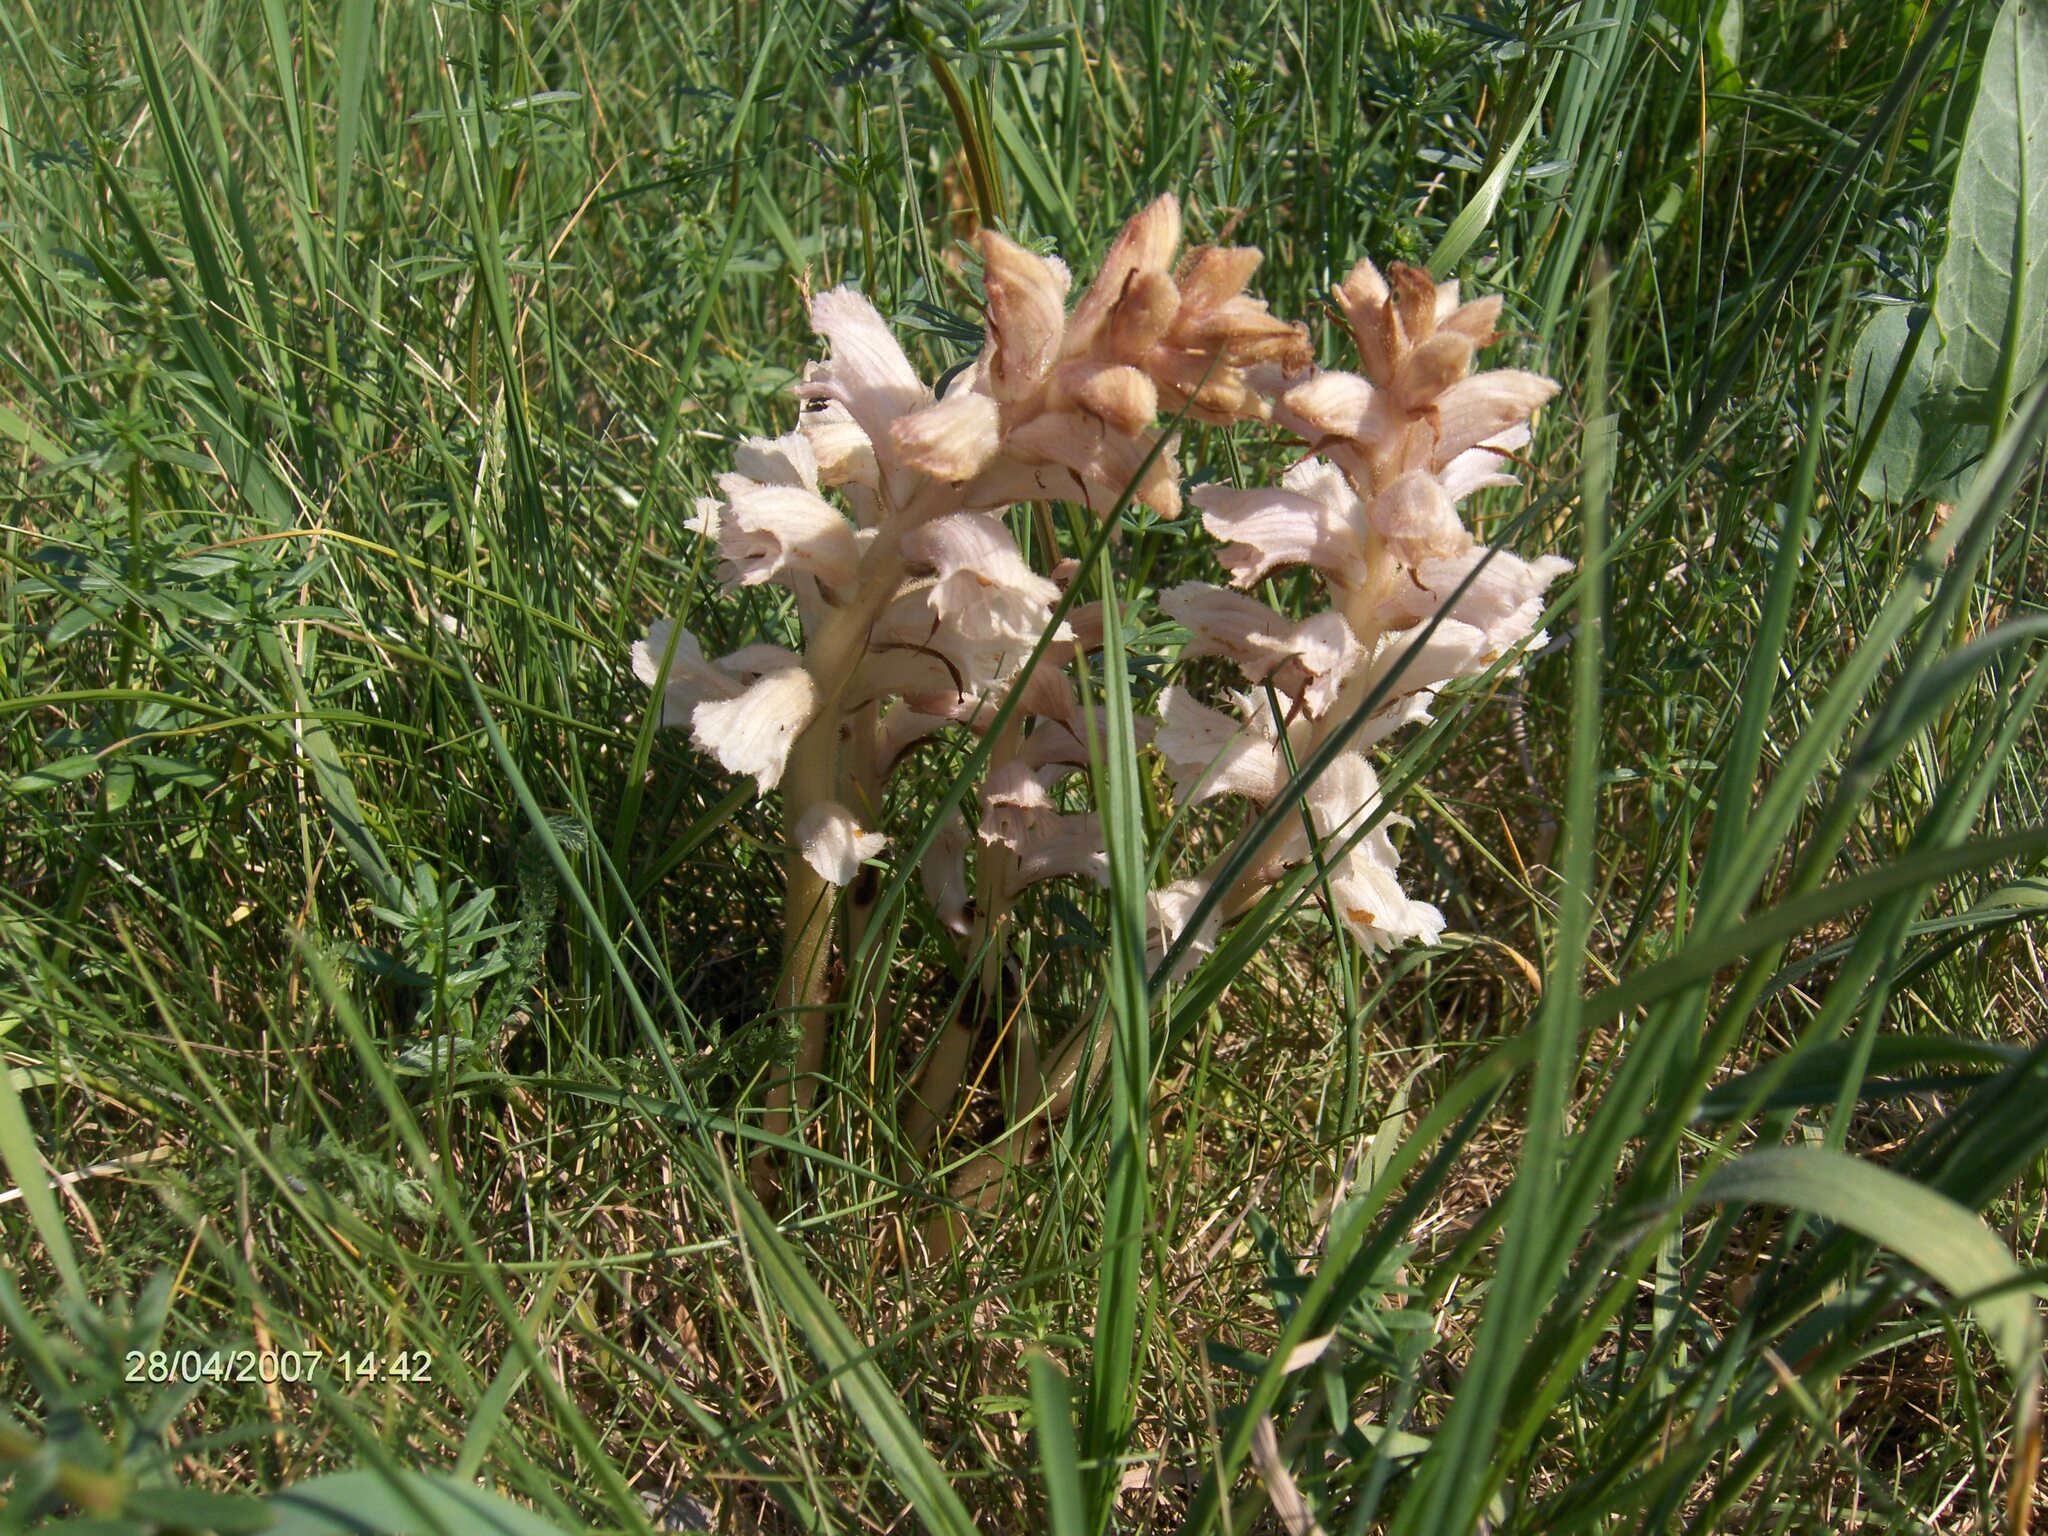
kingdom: Plantae
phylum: Tracheophyta
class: Magnoliopsida
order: Lamiales
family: Orobanchaceae
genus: Orobanche
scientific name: Orobanche caryophyllacea
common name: Bedstraw broomrape
